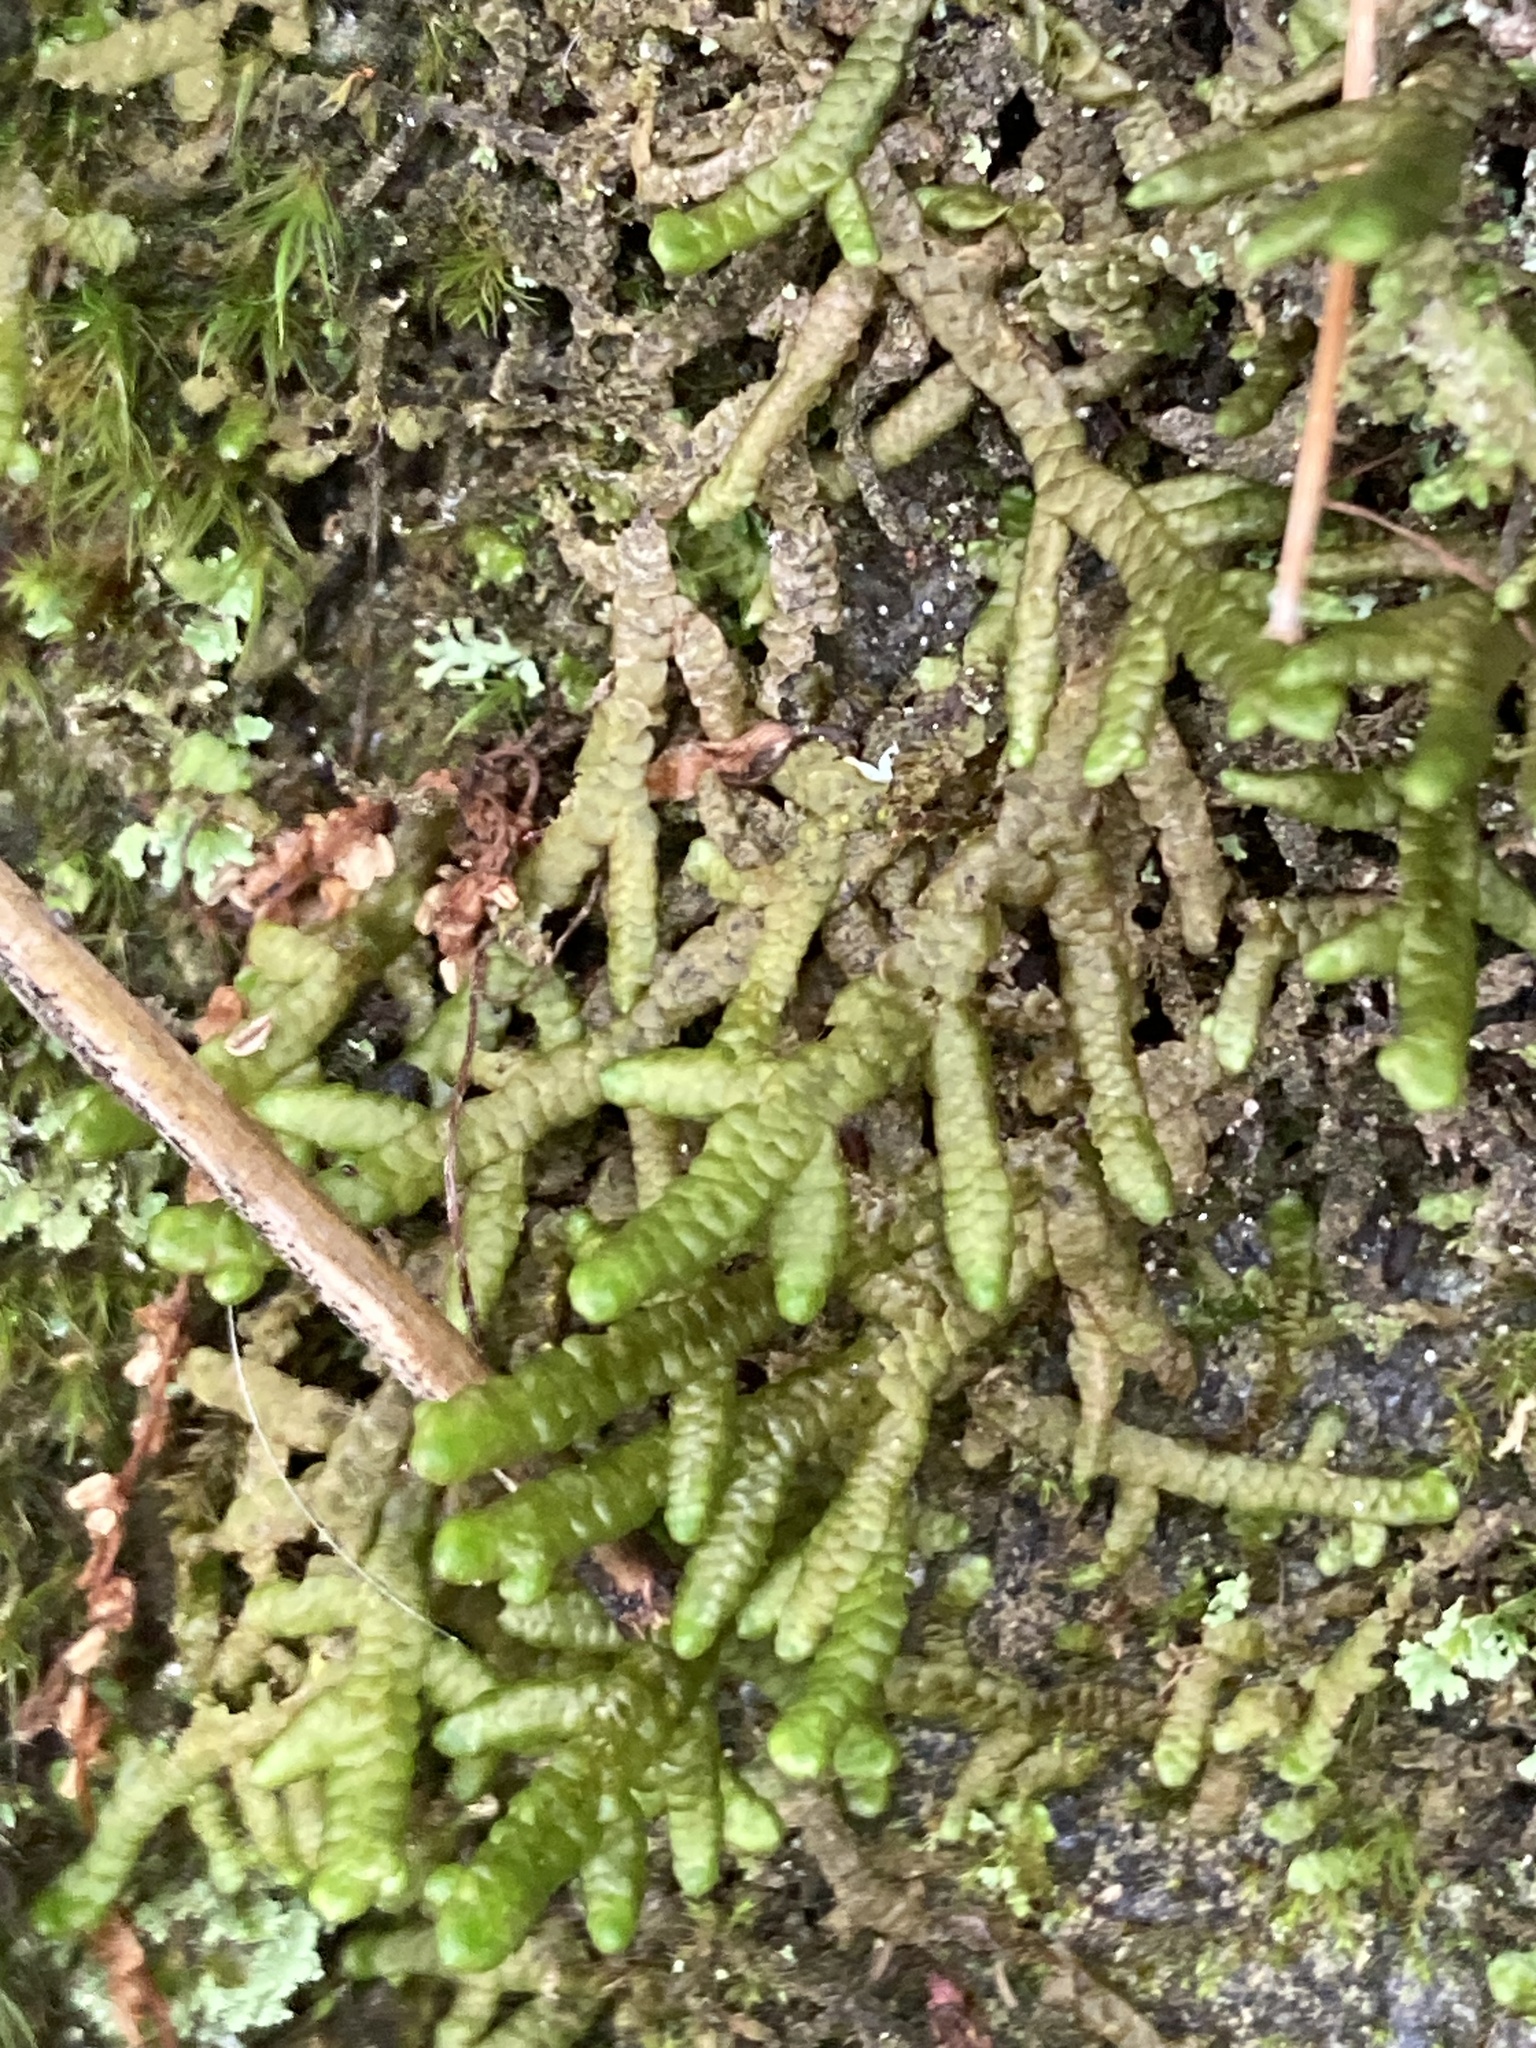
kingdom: Plantae
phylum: Marchantiophyta
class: Jungermanniopsida
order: Porellales
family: Porellaceae
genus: Porella
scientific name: Porella platyphylla
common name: Wall scalewort
